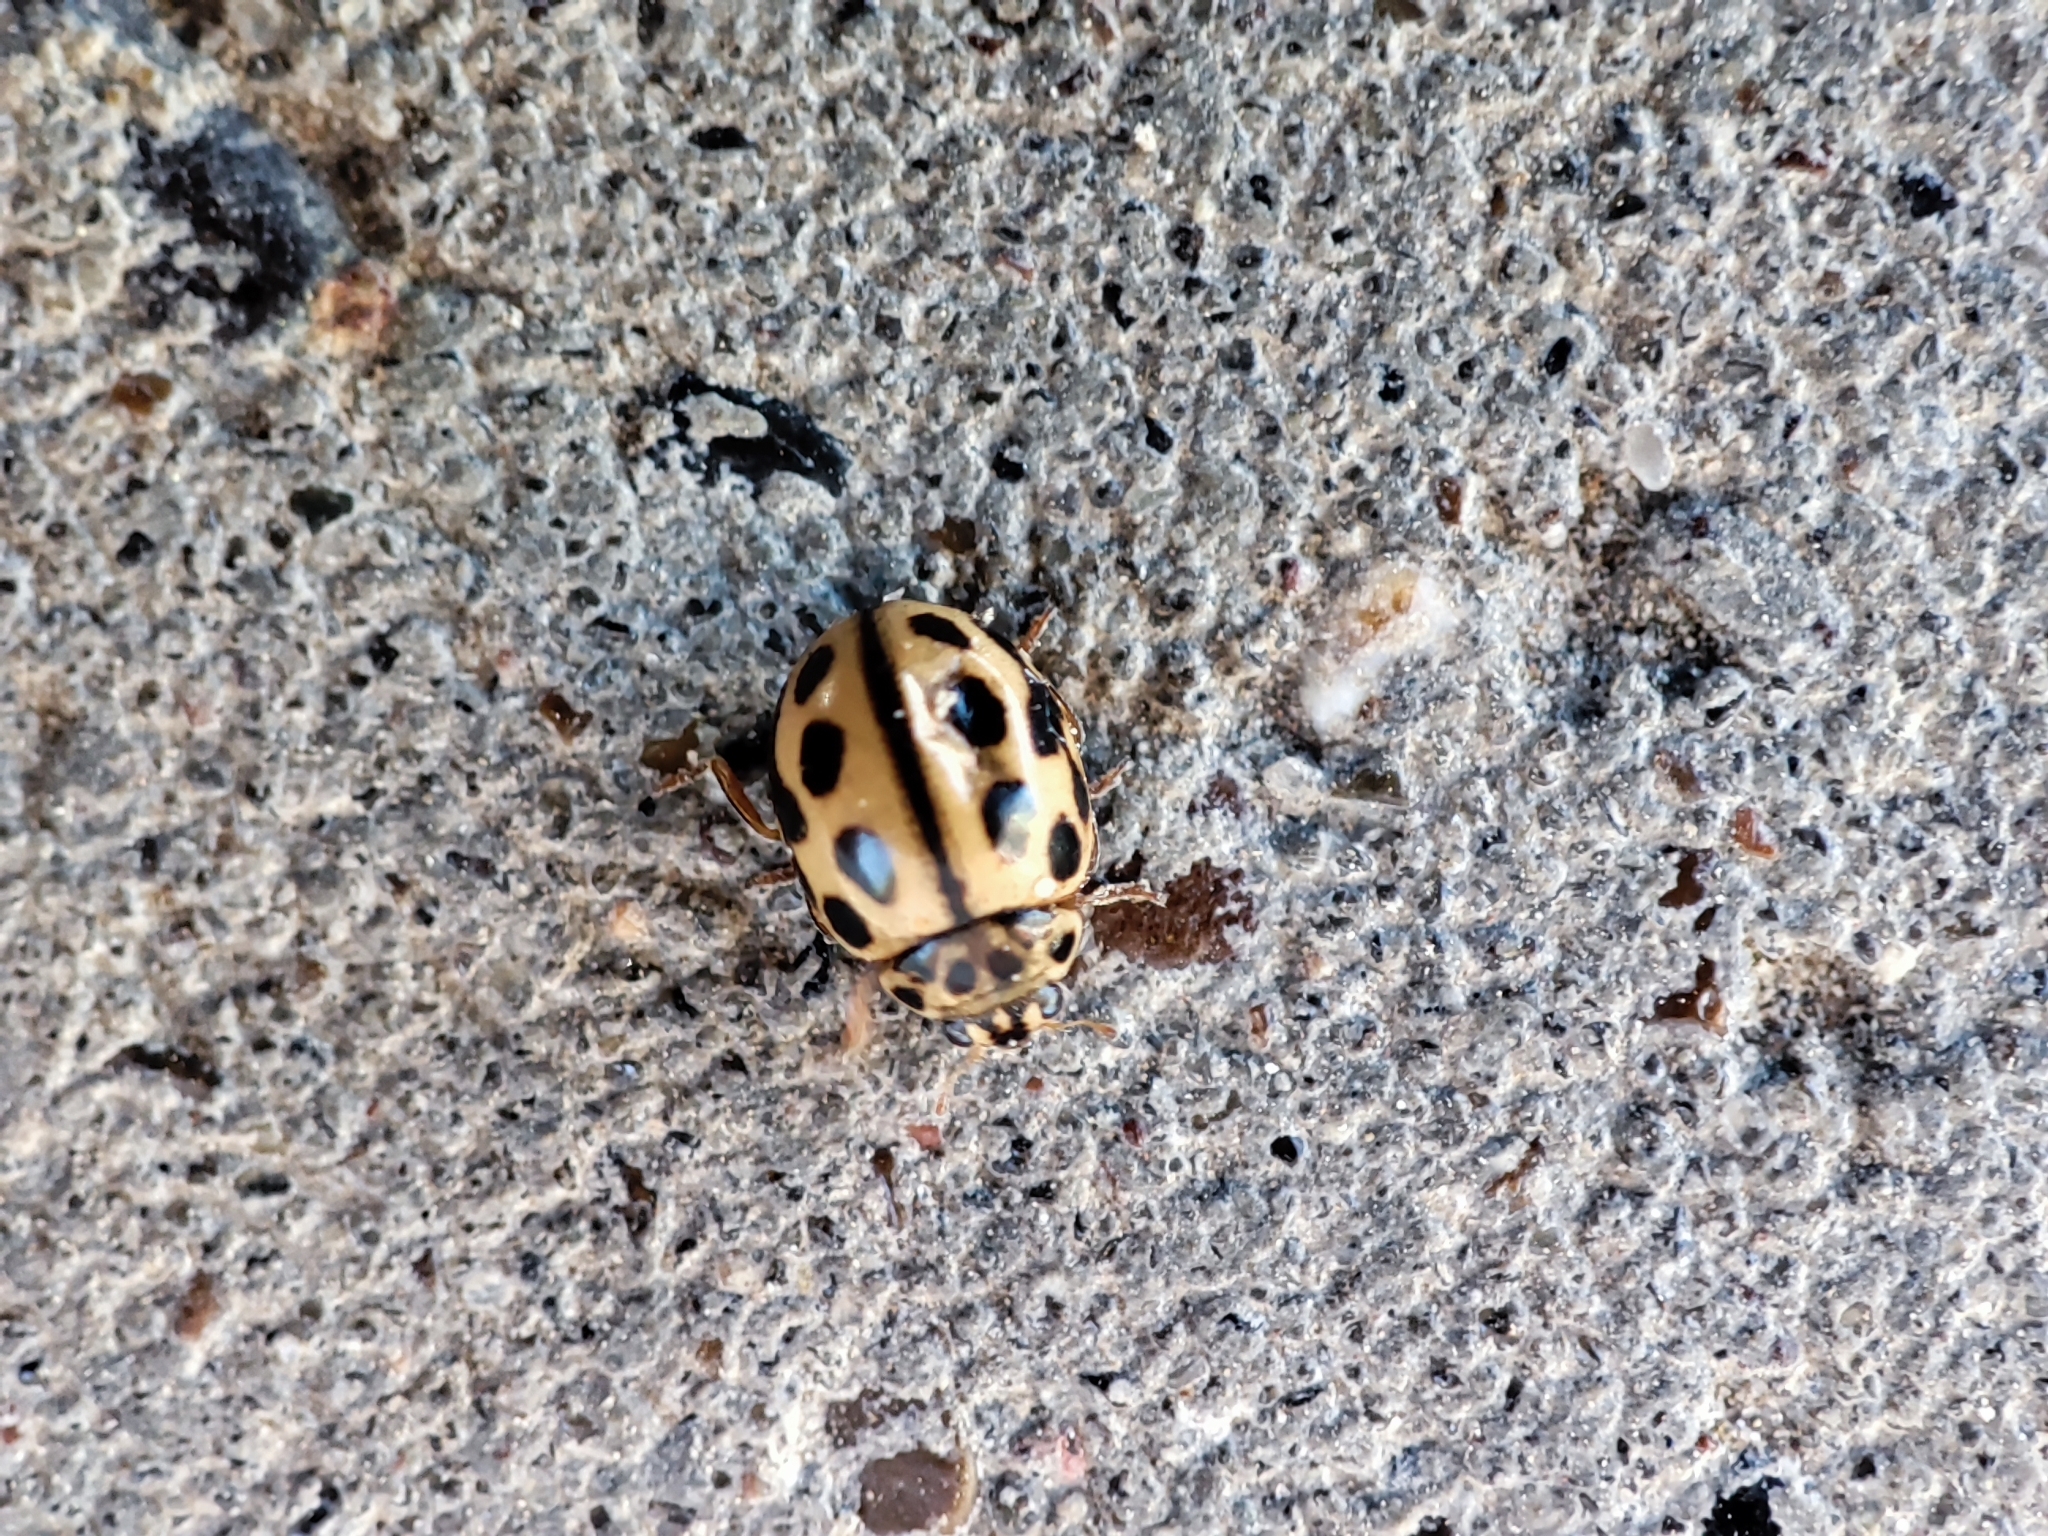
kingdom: Animalia
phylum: Arthropoda
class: Insecta
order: Coleoptera
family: Coccinellidae
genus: Tytthaspis
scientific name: Tytthaspis sedecimpunctata
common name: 16-spot ladybird
